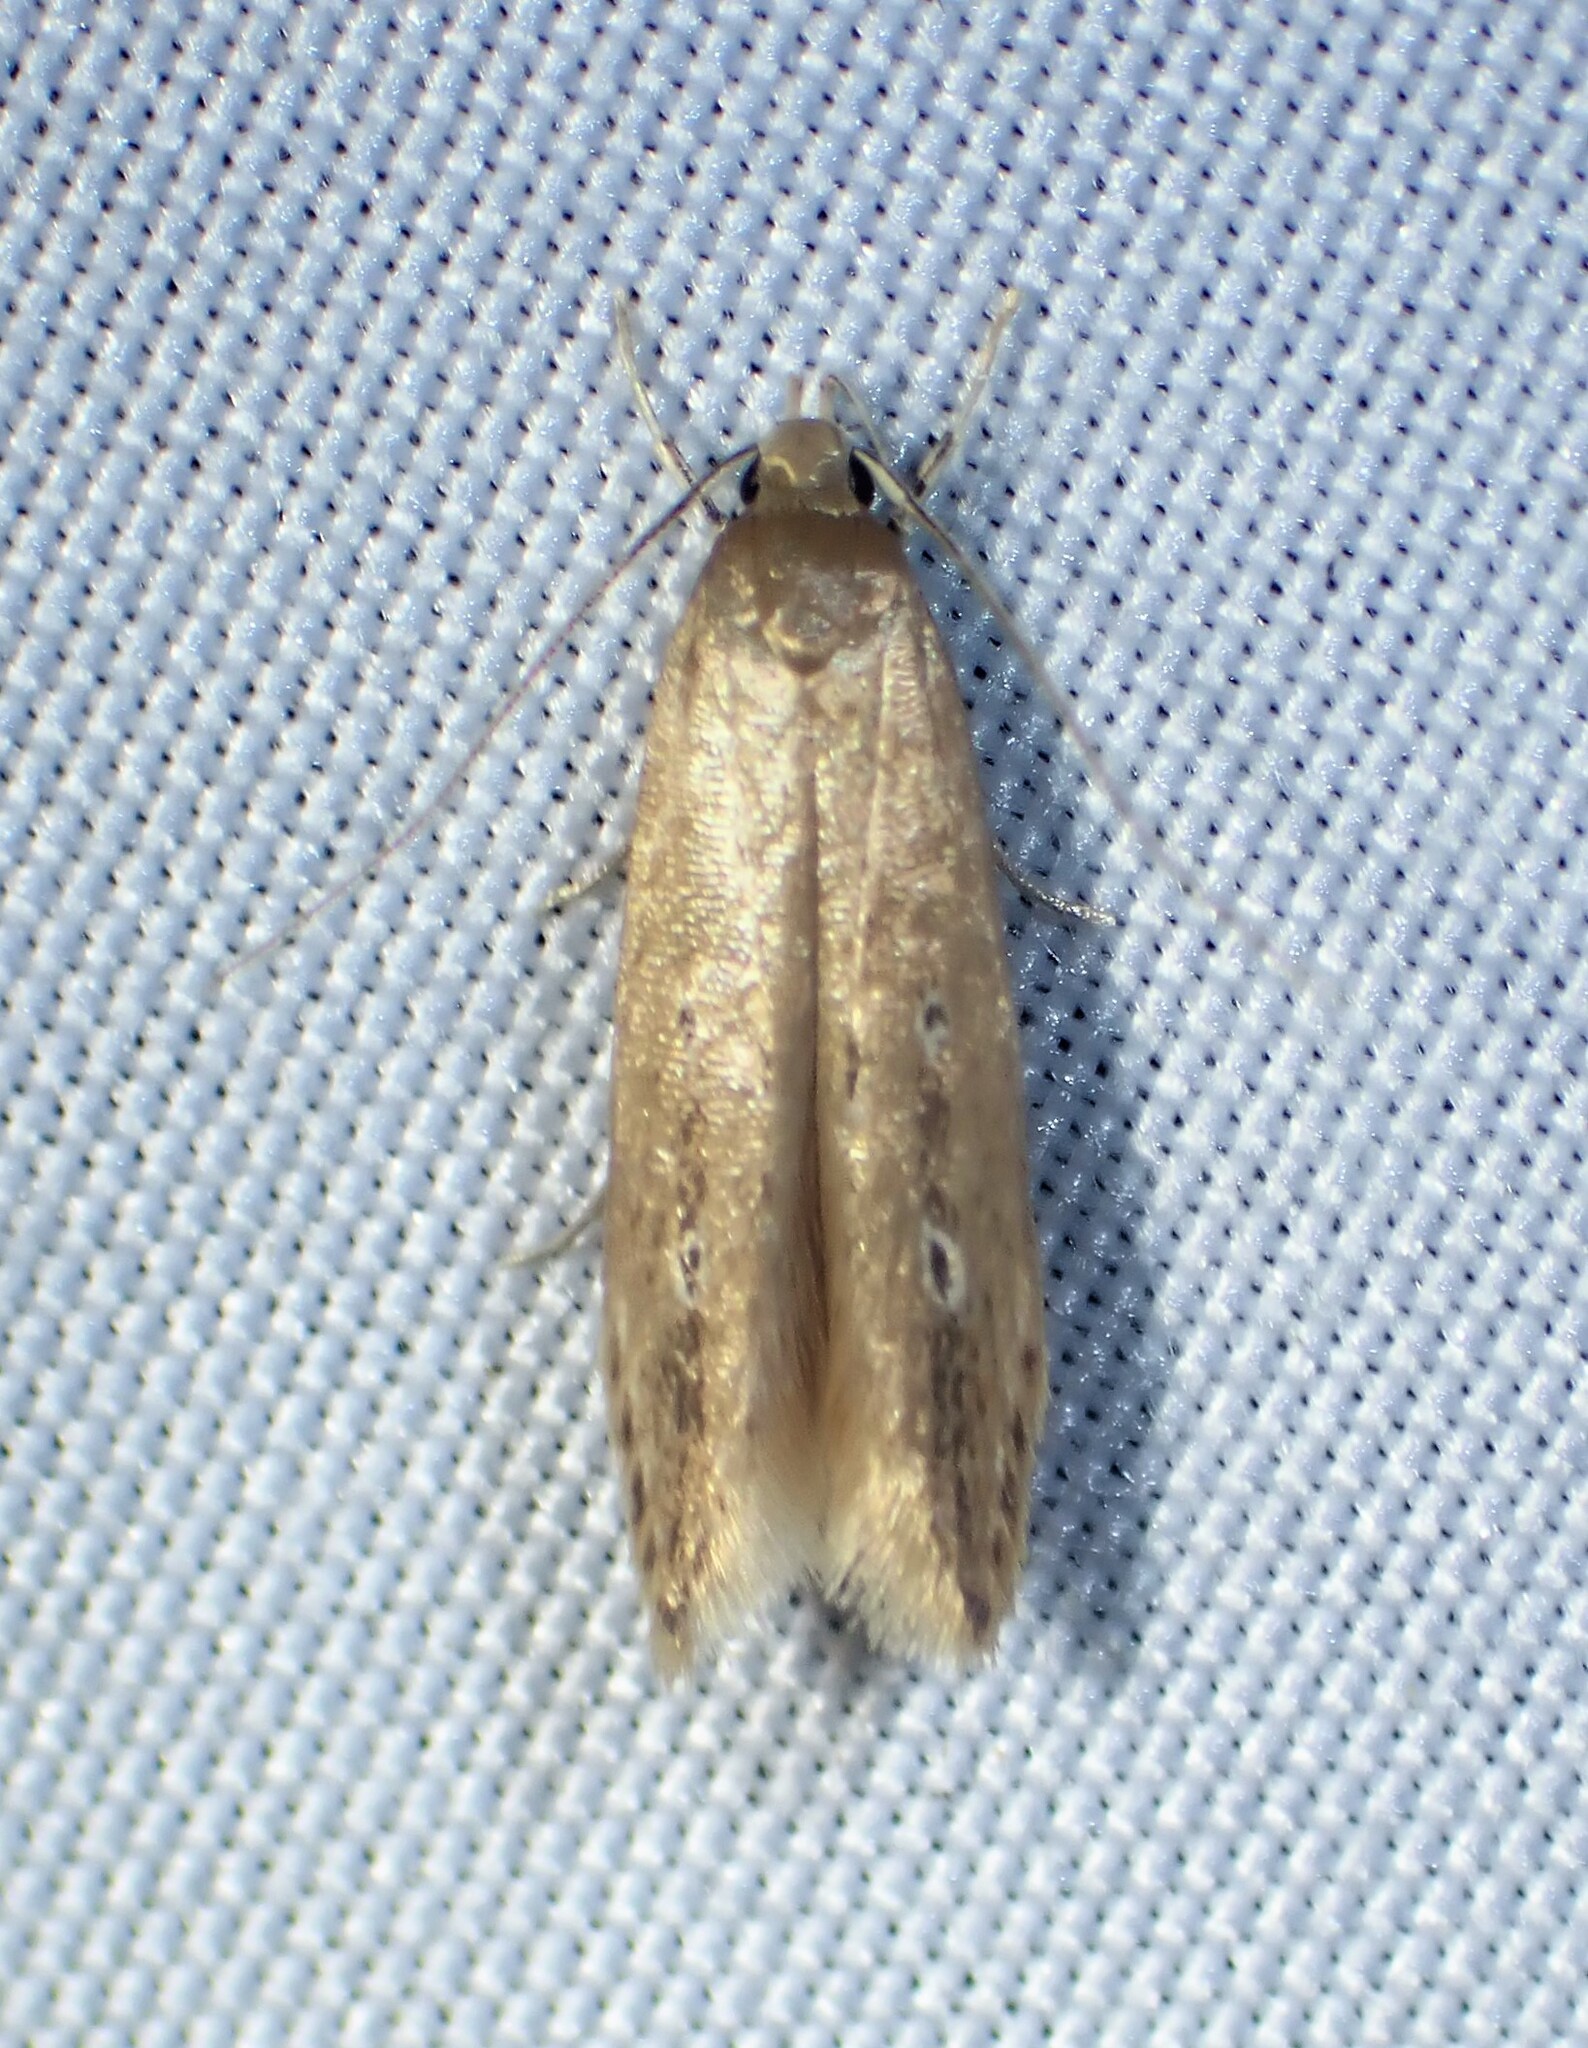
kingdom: Animalia
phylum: Arthropoda
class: Insecta
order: Lepidoptera
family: Cosmopterigidae
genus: Limnaecia
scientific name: Limnaecia phragmitella
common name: Bulrush cosmet
